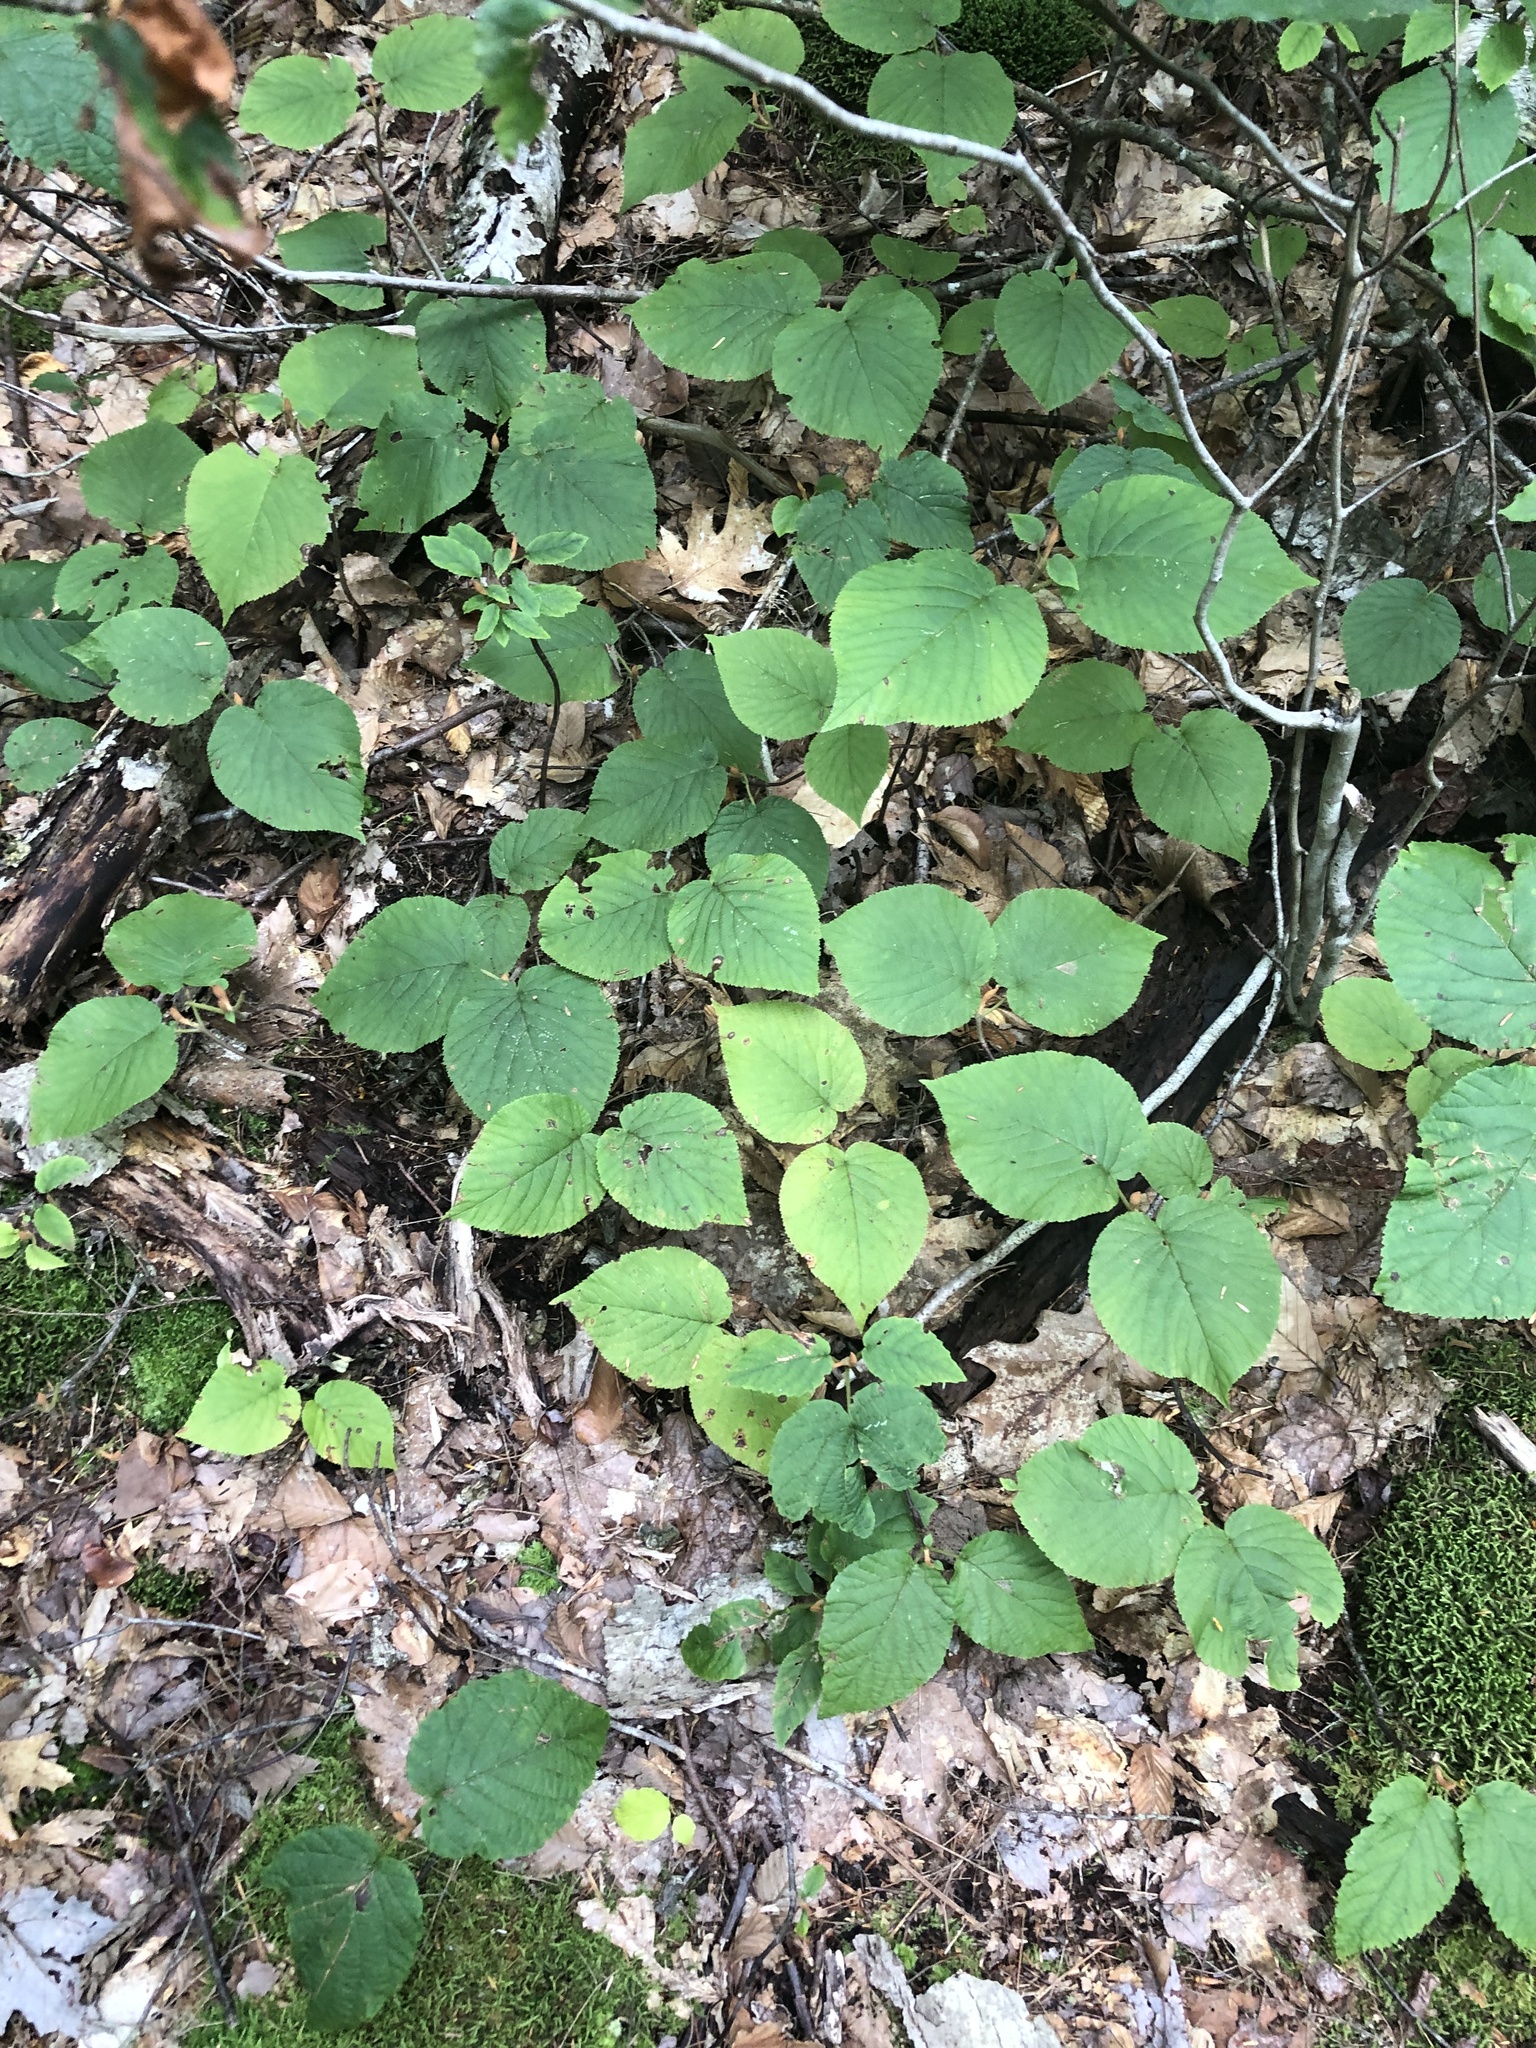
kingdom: Plantae
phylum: Tracheophyta
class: Magnoliopsida
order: Dipsacales
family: Viburnaceae
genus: Viburnum
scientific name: Viburnum lantanoides
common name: Hobblebush
